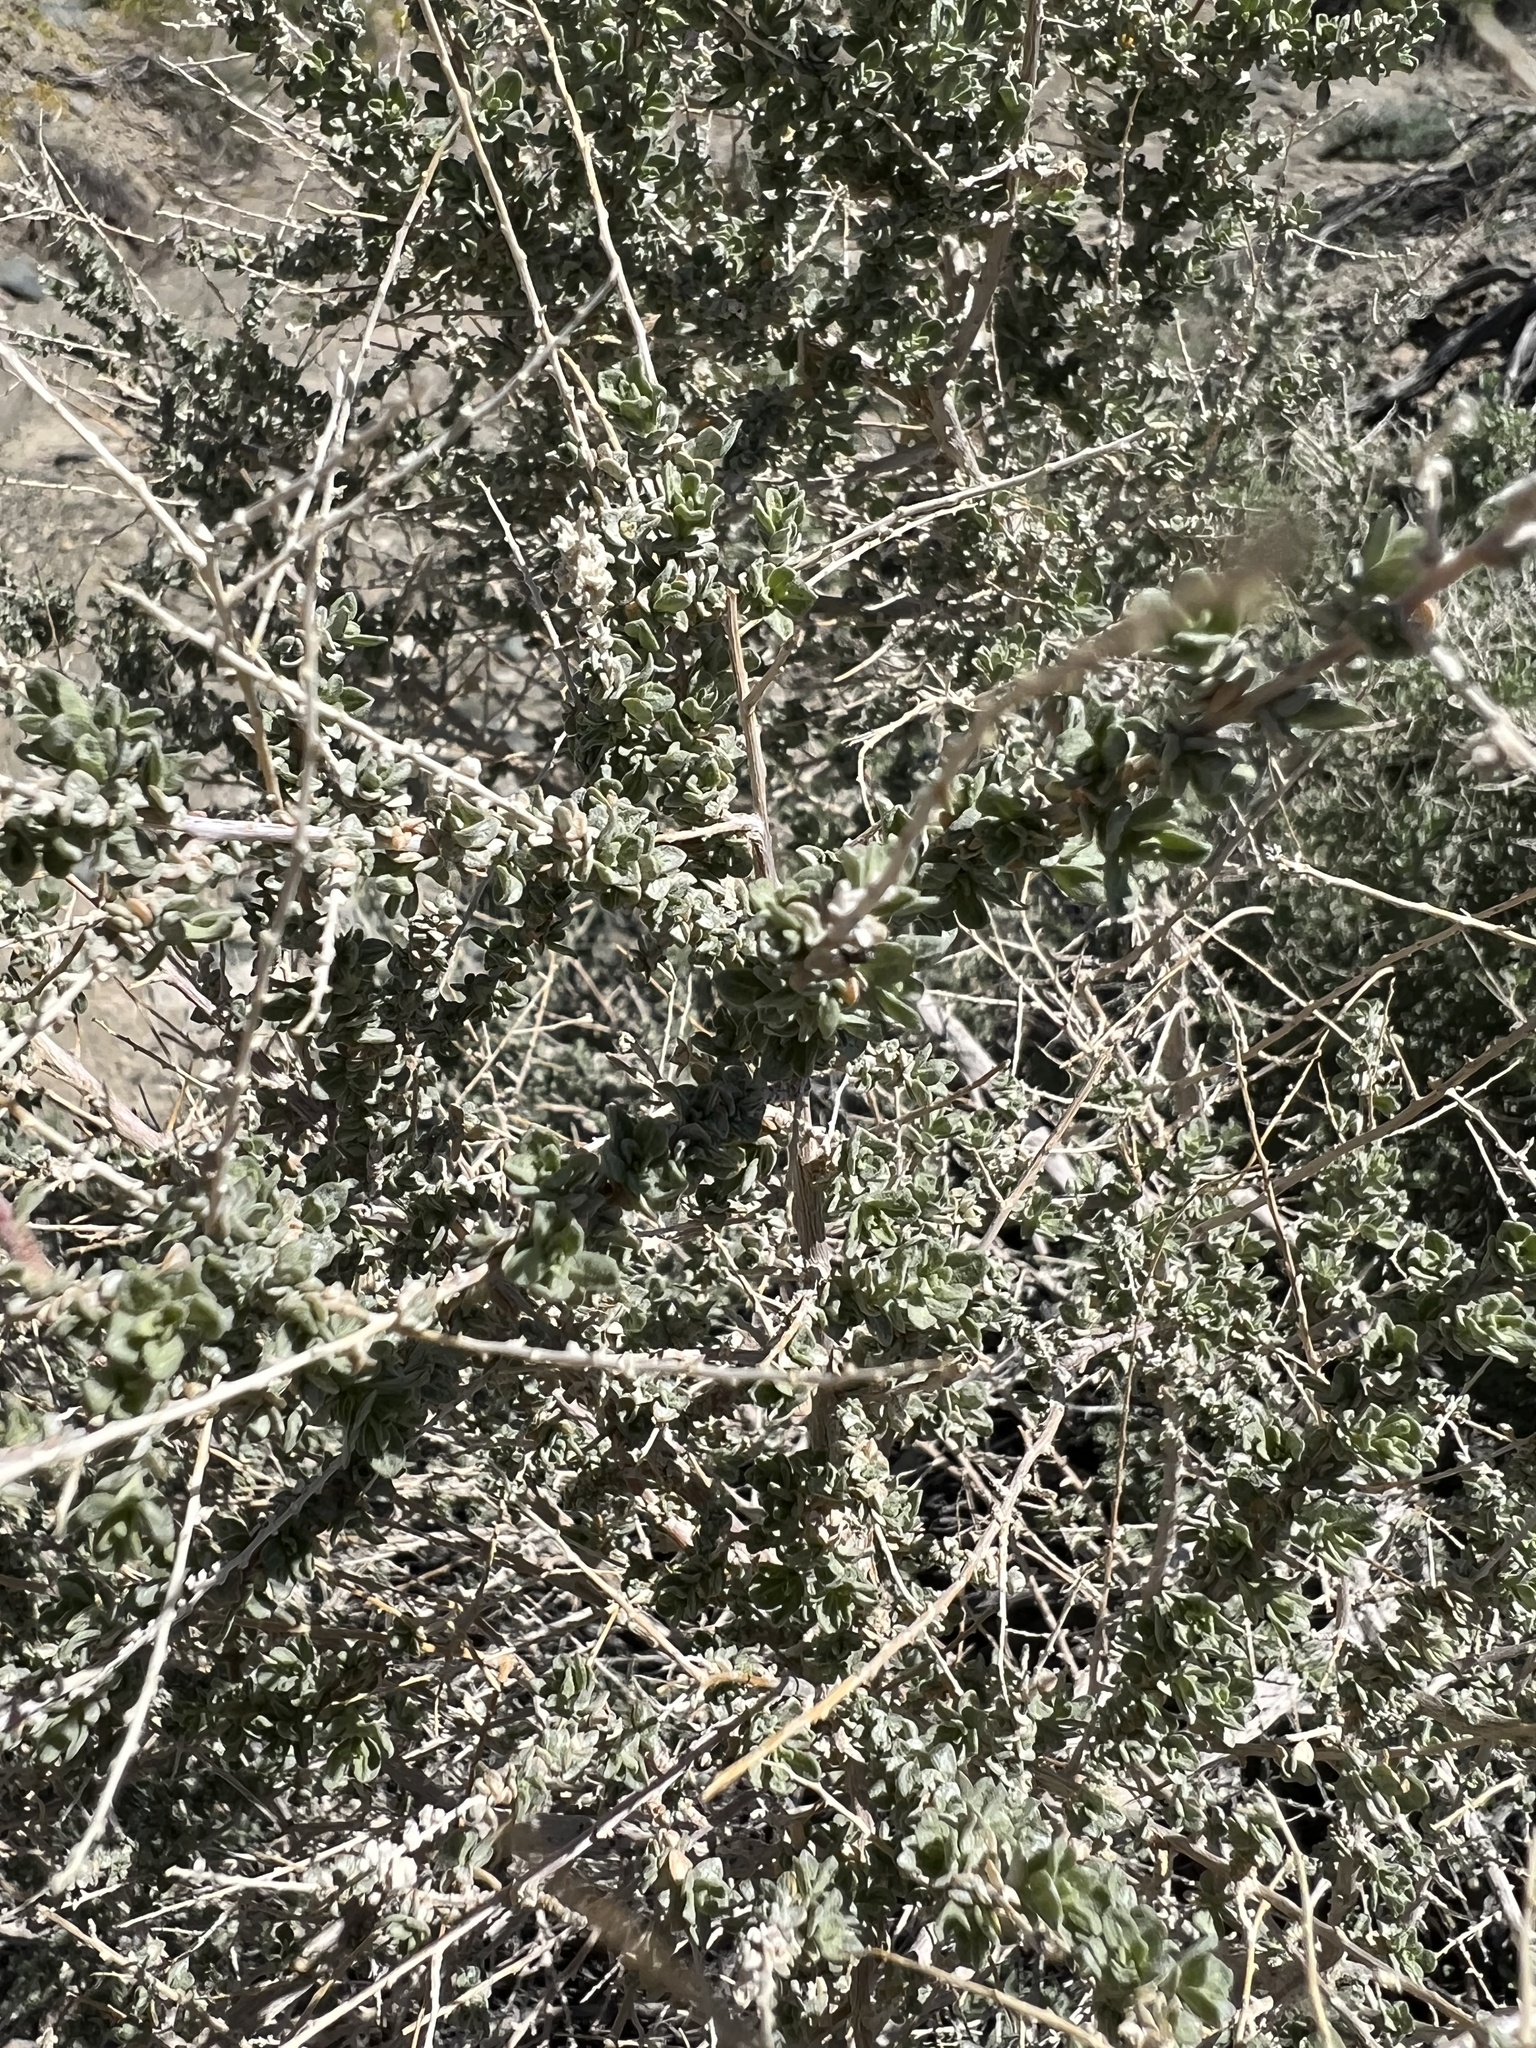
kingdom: Plantae
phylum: Tracheophyta
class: Magnoliopsida
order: Caryophyllales
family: Amaranthaceae
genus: Atriplex
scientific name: Atriplex polycarpa
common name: Desert saltbush
